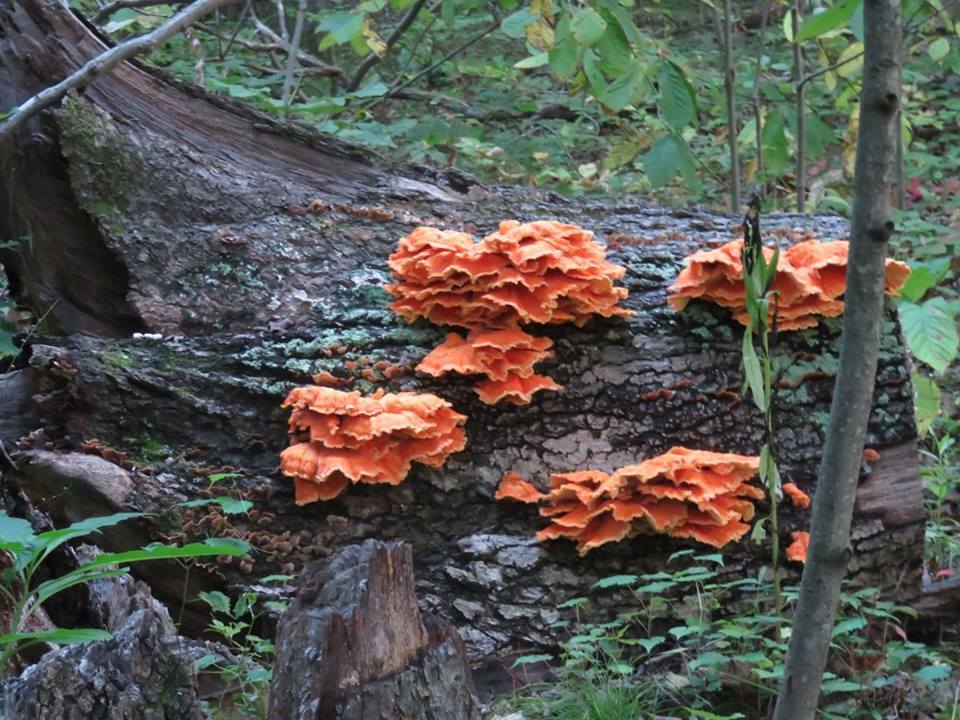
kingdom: Fungi
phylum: Basidiomycota
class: Agaricomycetes
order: Polyporales
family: Laetiporaceae
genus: Laetiporus
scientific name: Laetiporus sulphureus
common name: Chicken of the woods
